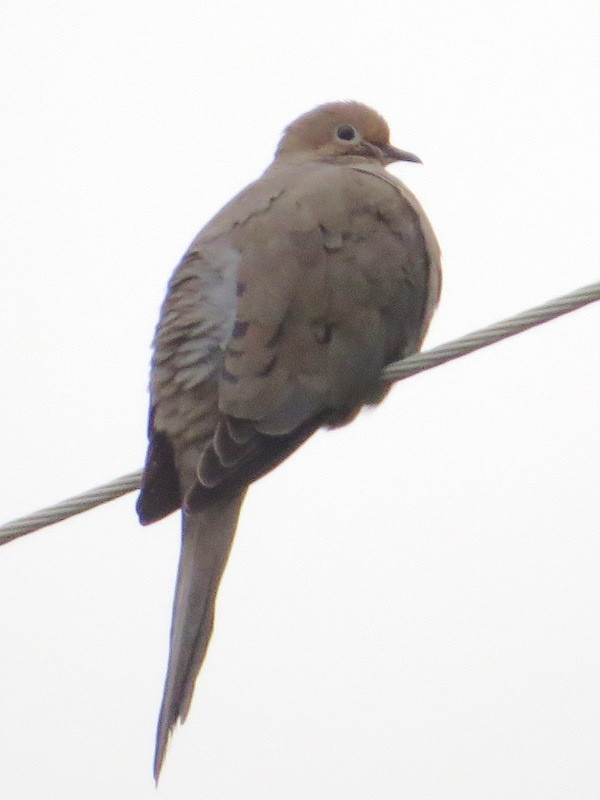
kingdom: Animalia
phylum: Chordata
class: Aves
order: Columbiformes
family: Columbidae
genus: Zenaida
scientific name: Zenaida macroura
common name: Mourning dove
